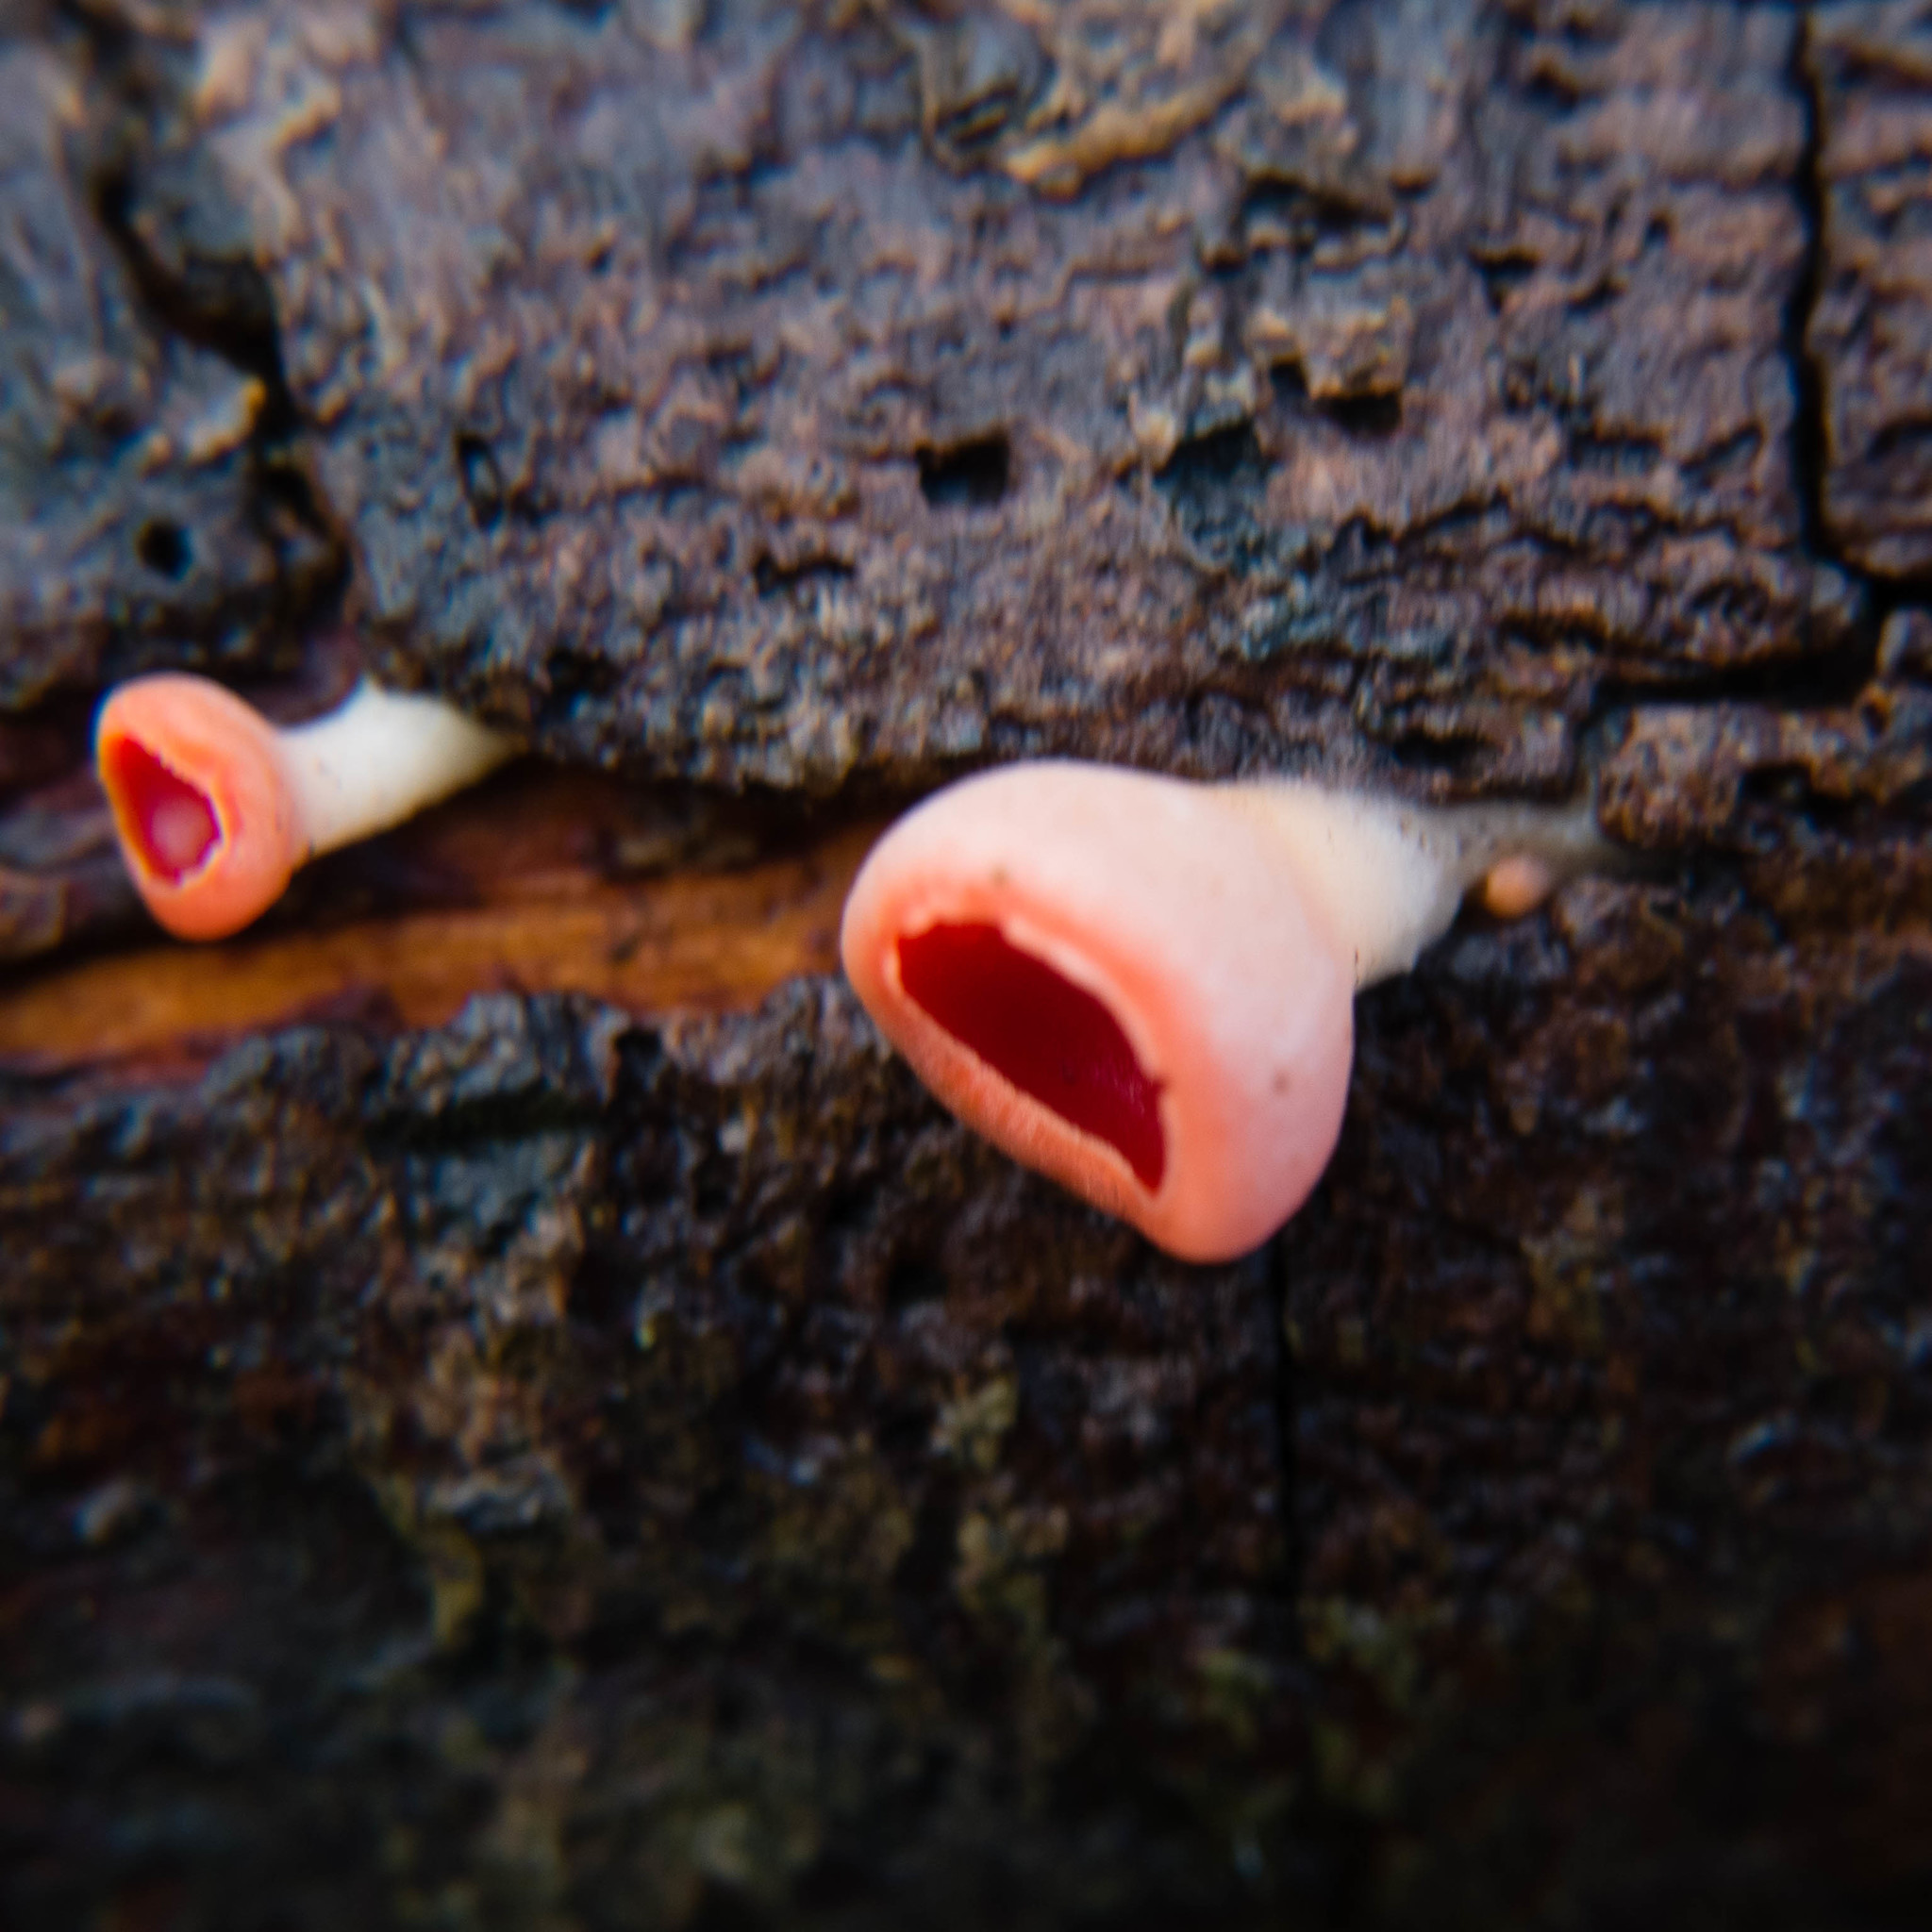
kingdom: Fungi
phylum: Ascomycota
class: Pezizomycetes
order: Pezizales
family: Sarcoscyphaceae
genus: Sarcoscypha
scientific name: Sarcoscypha
